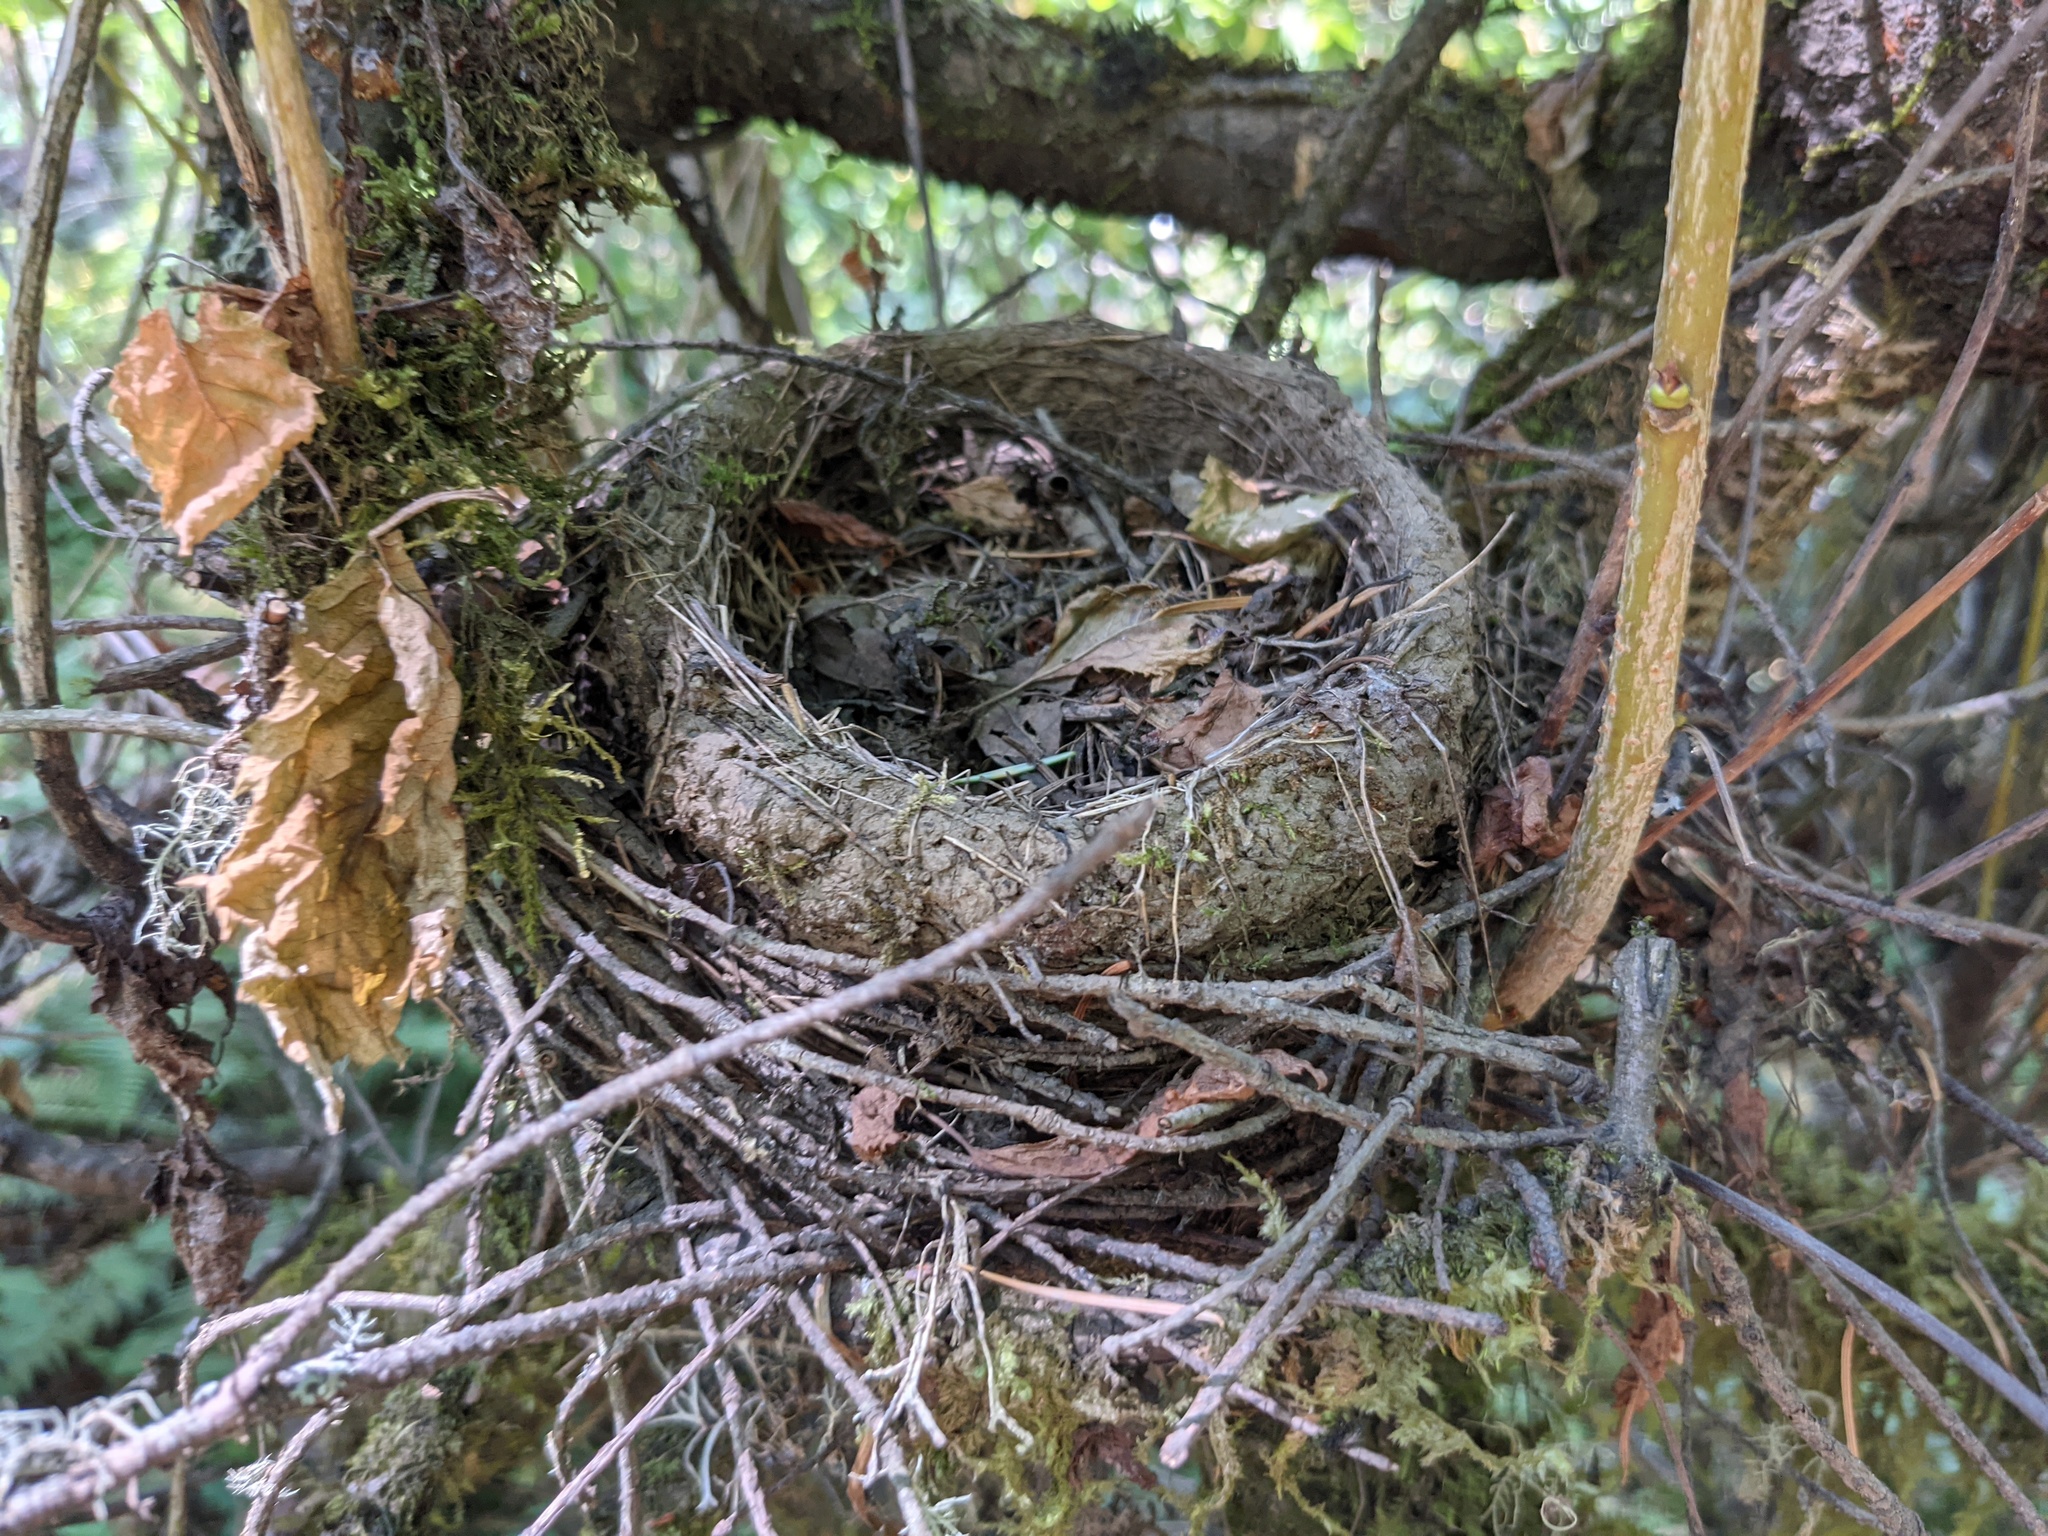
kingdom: Animalia
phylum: Chordata
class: Aves
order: Passeriformes
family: Turdidae
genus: Turdus
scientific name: Turdus migratorius
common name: American robin
